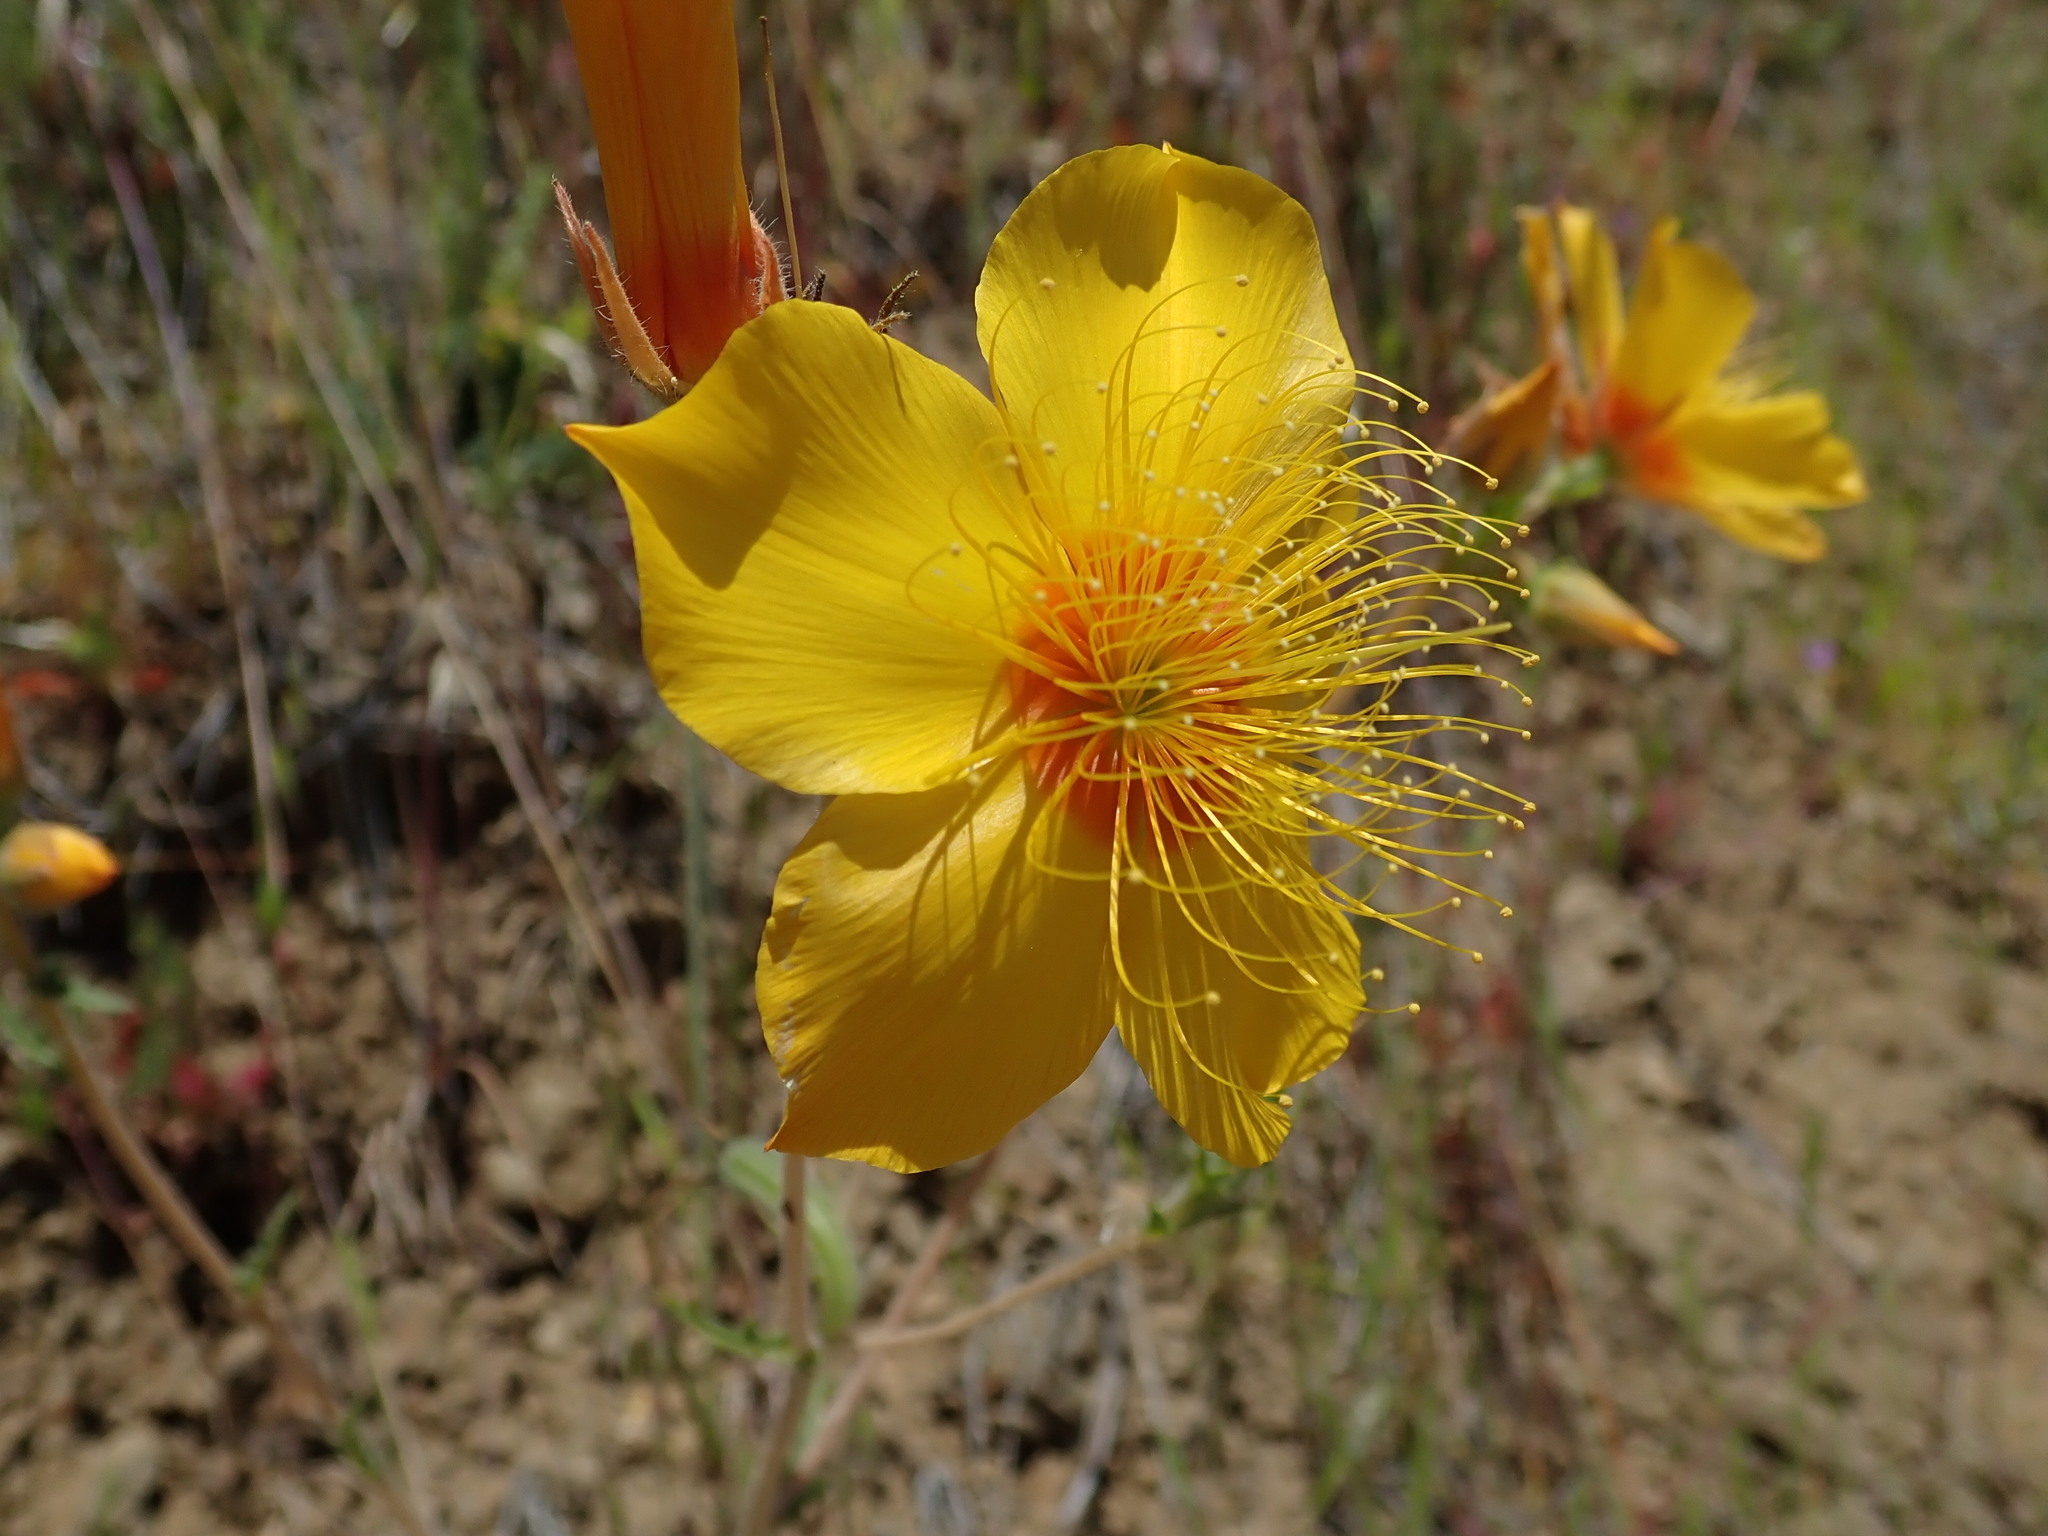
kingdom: Plantae
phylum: Tracheophyta
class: Magnoliopsida
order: Cornales
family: Loasaceae
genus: Mentzelia
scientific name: Mentzelia lindleyi
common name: Golden bartonia
